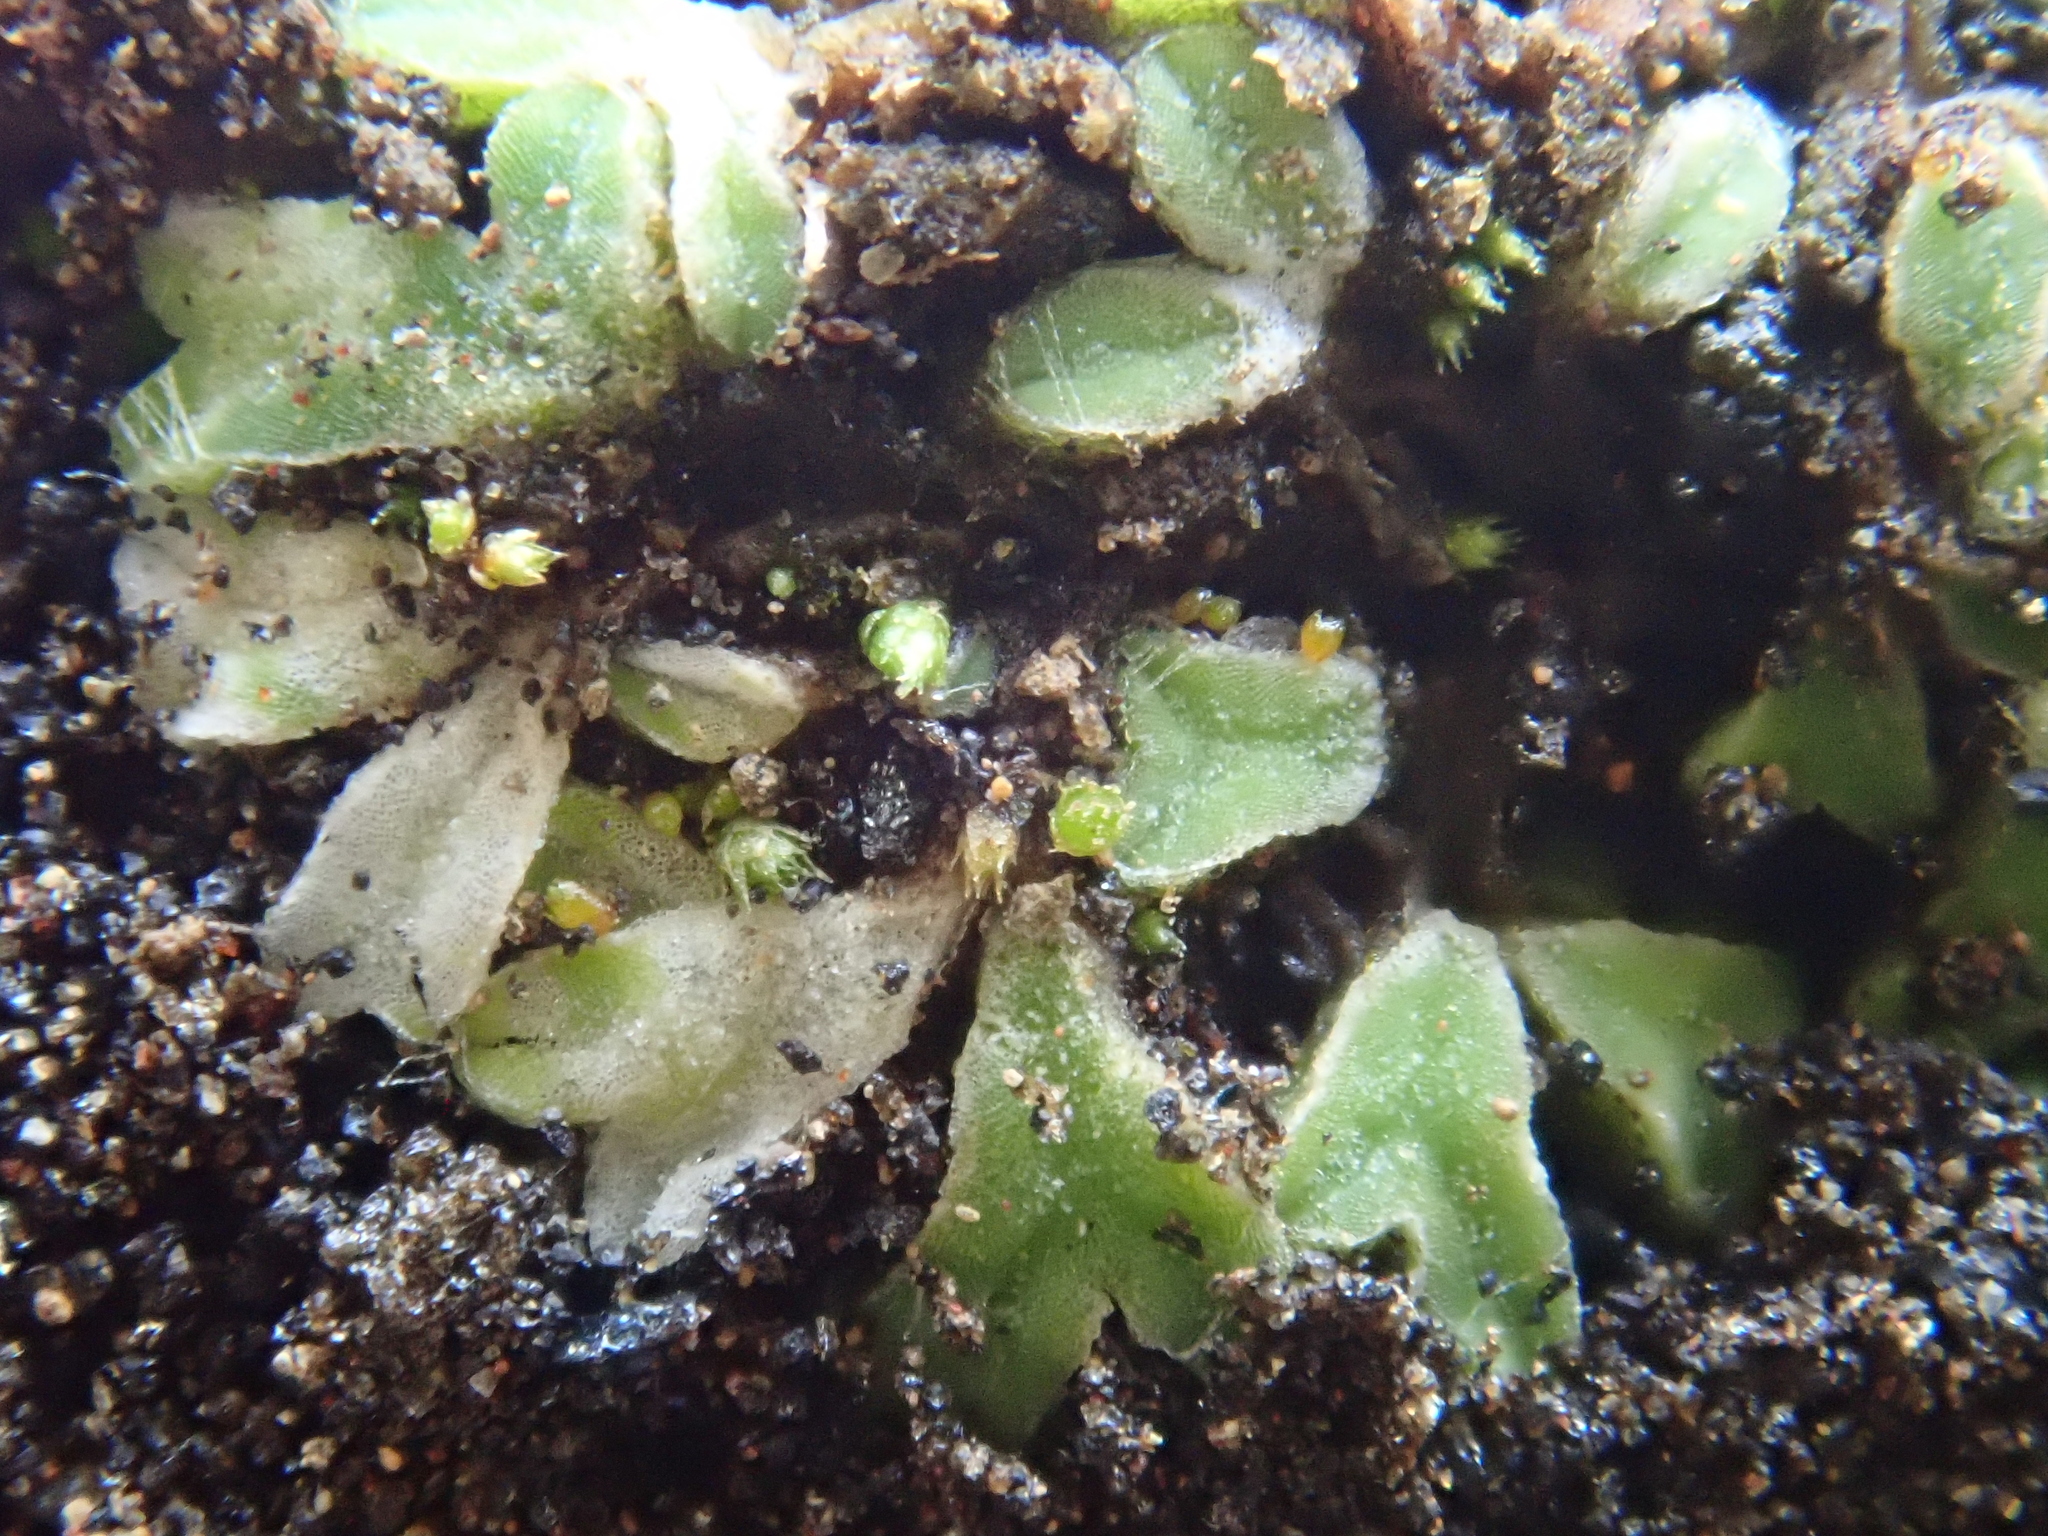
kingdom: Plantae
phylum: Marchantiophyta
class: Marchantiopsida
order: Marchantiales
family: Ricciaceae
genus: Riccia
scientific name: Riccia sorocarpa
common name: Common crystalwort
